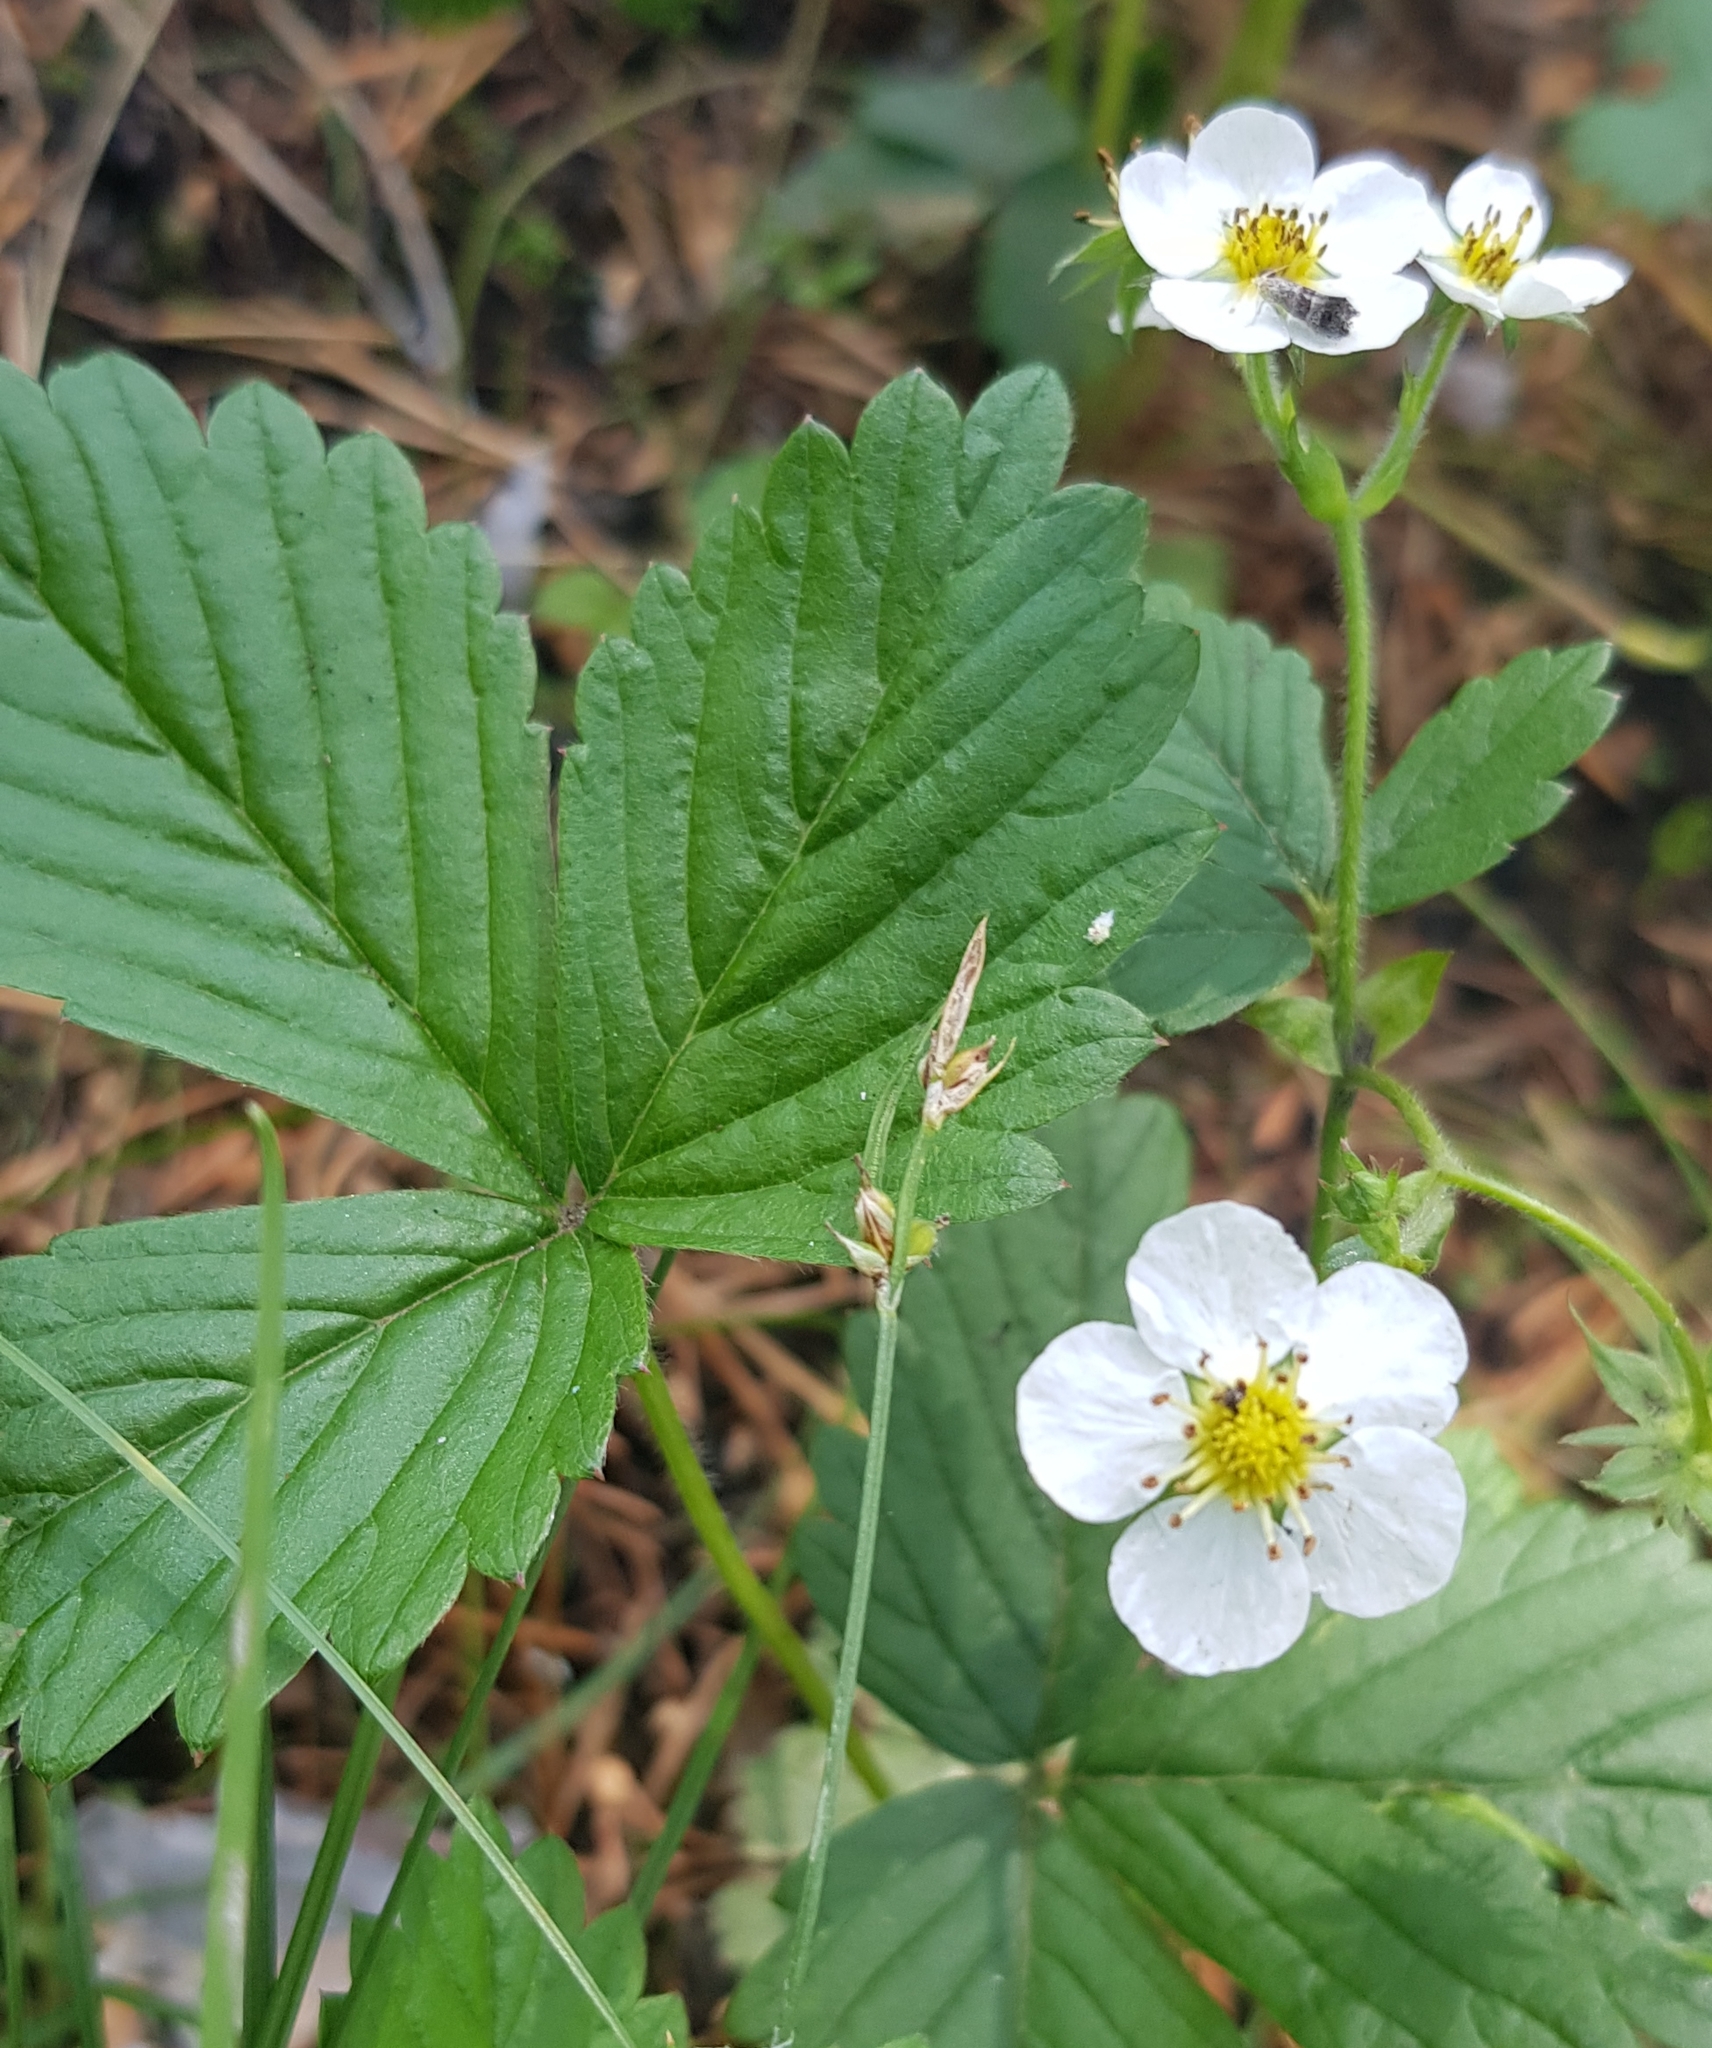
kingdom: Plantae
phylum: Tracheophyta
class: Magnoliopsida
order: Rosales
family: Rosaceae
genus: Fragaria
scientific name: Fragaria orientalis
